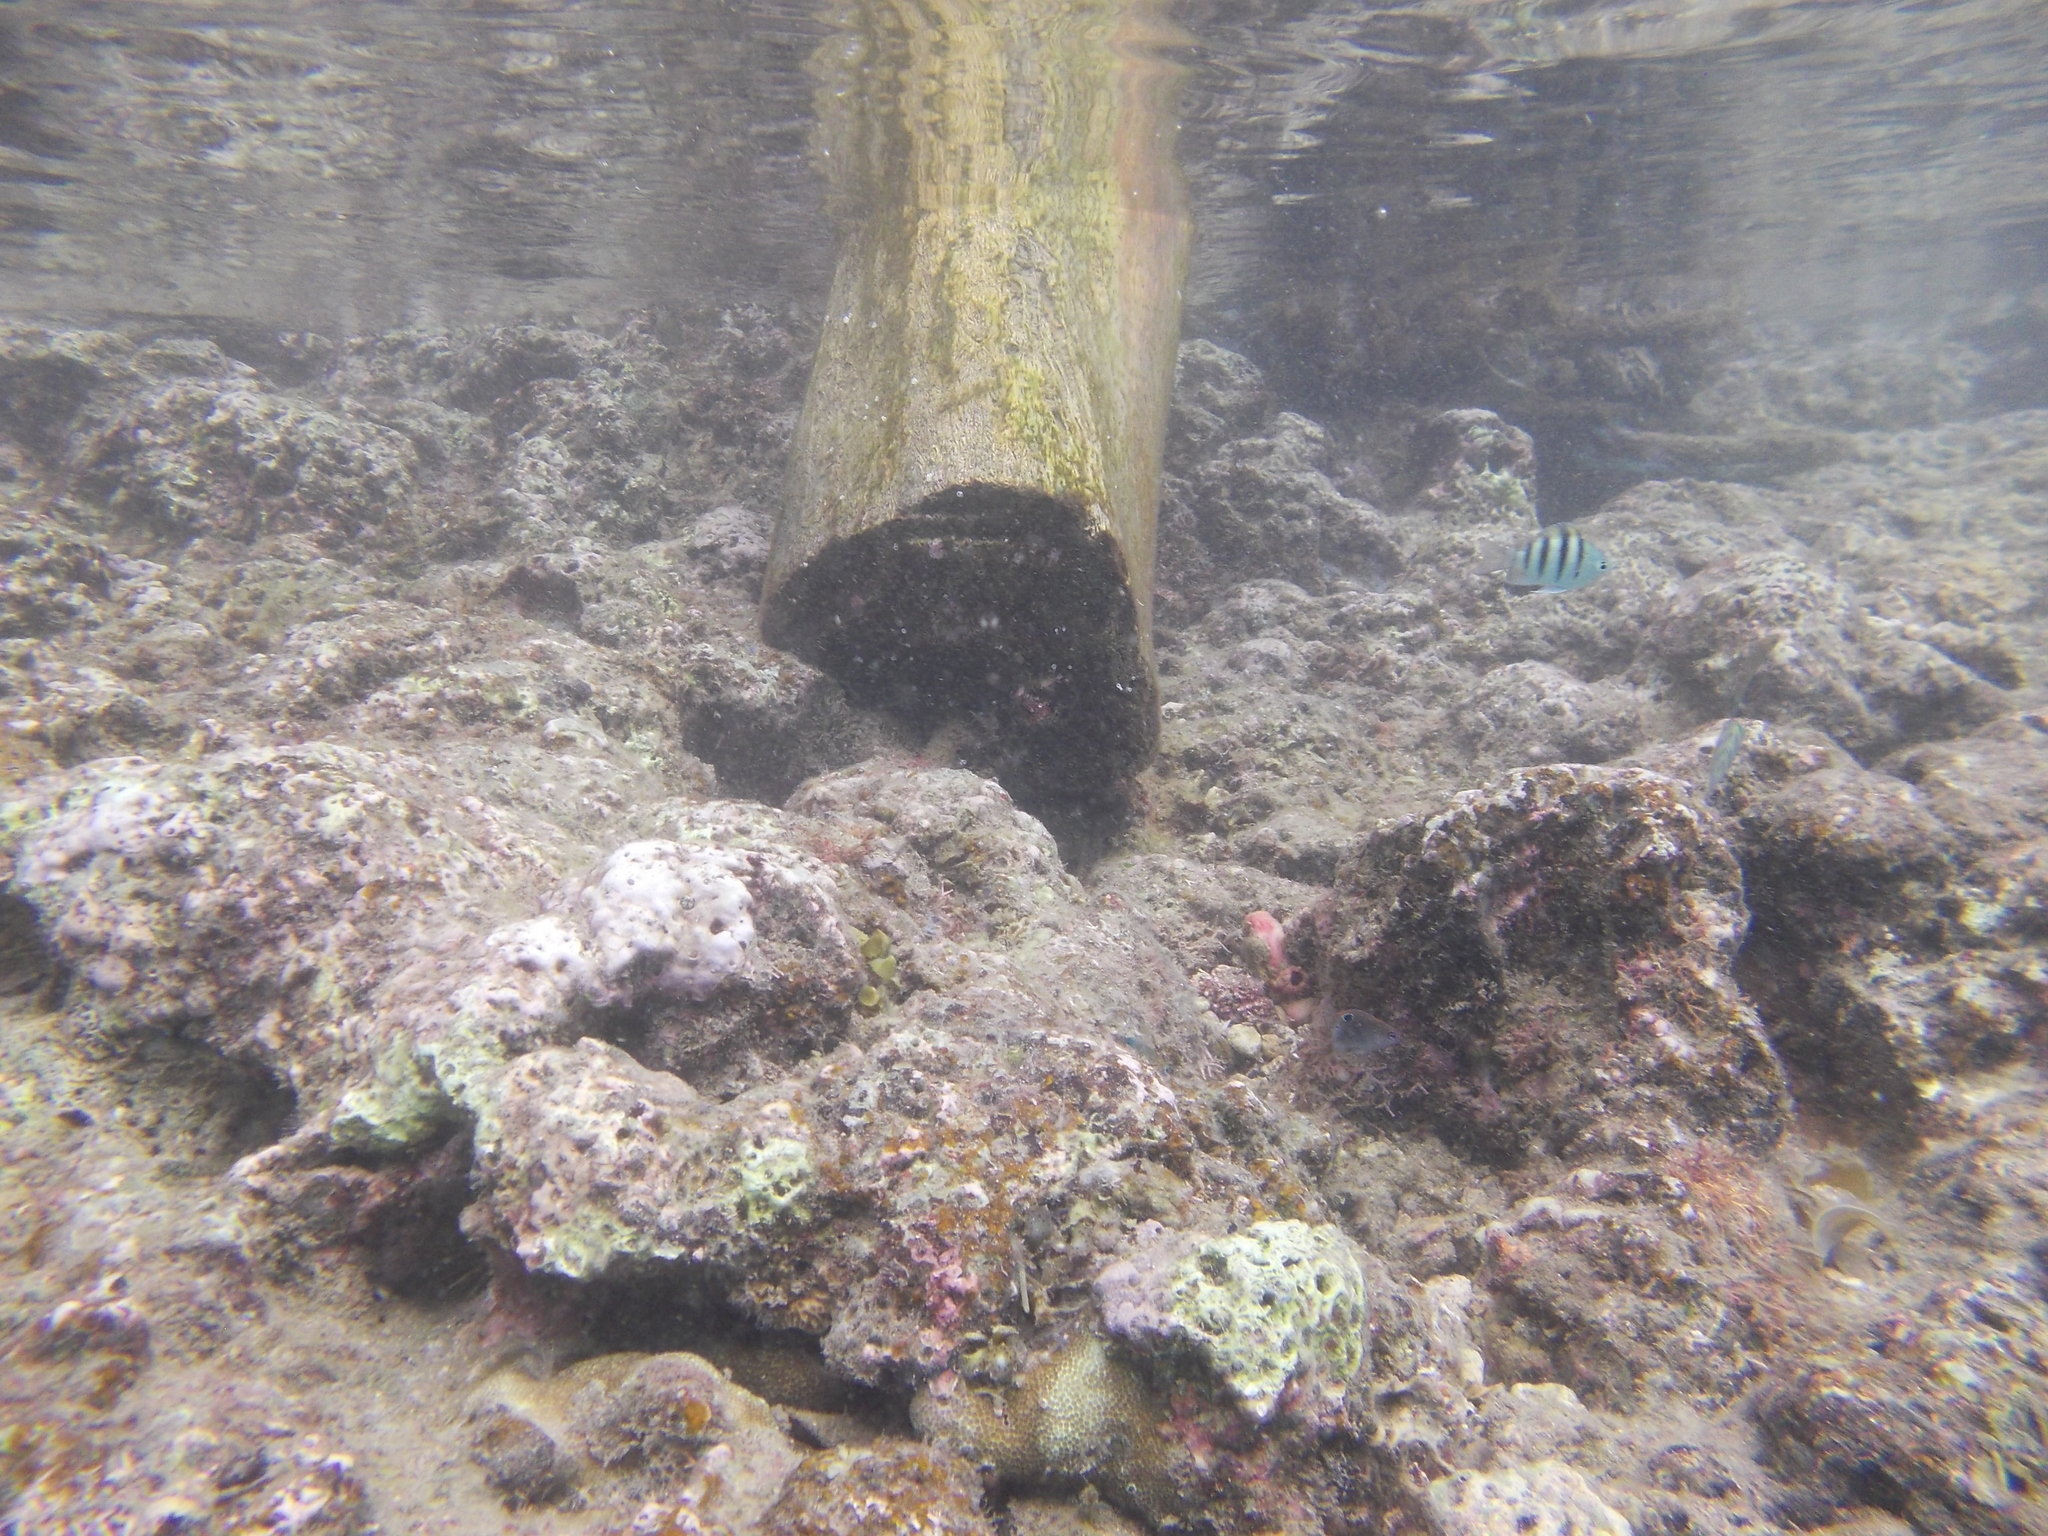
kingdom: Animalia
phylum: Chordata
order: Perciformes
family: Pomacentridae
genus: Abudefduf
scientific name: Abudefduf bengalensis
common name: Bengal sergeant
